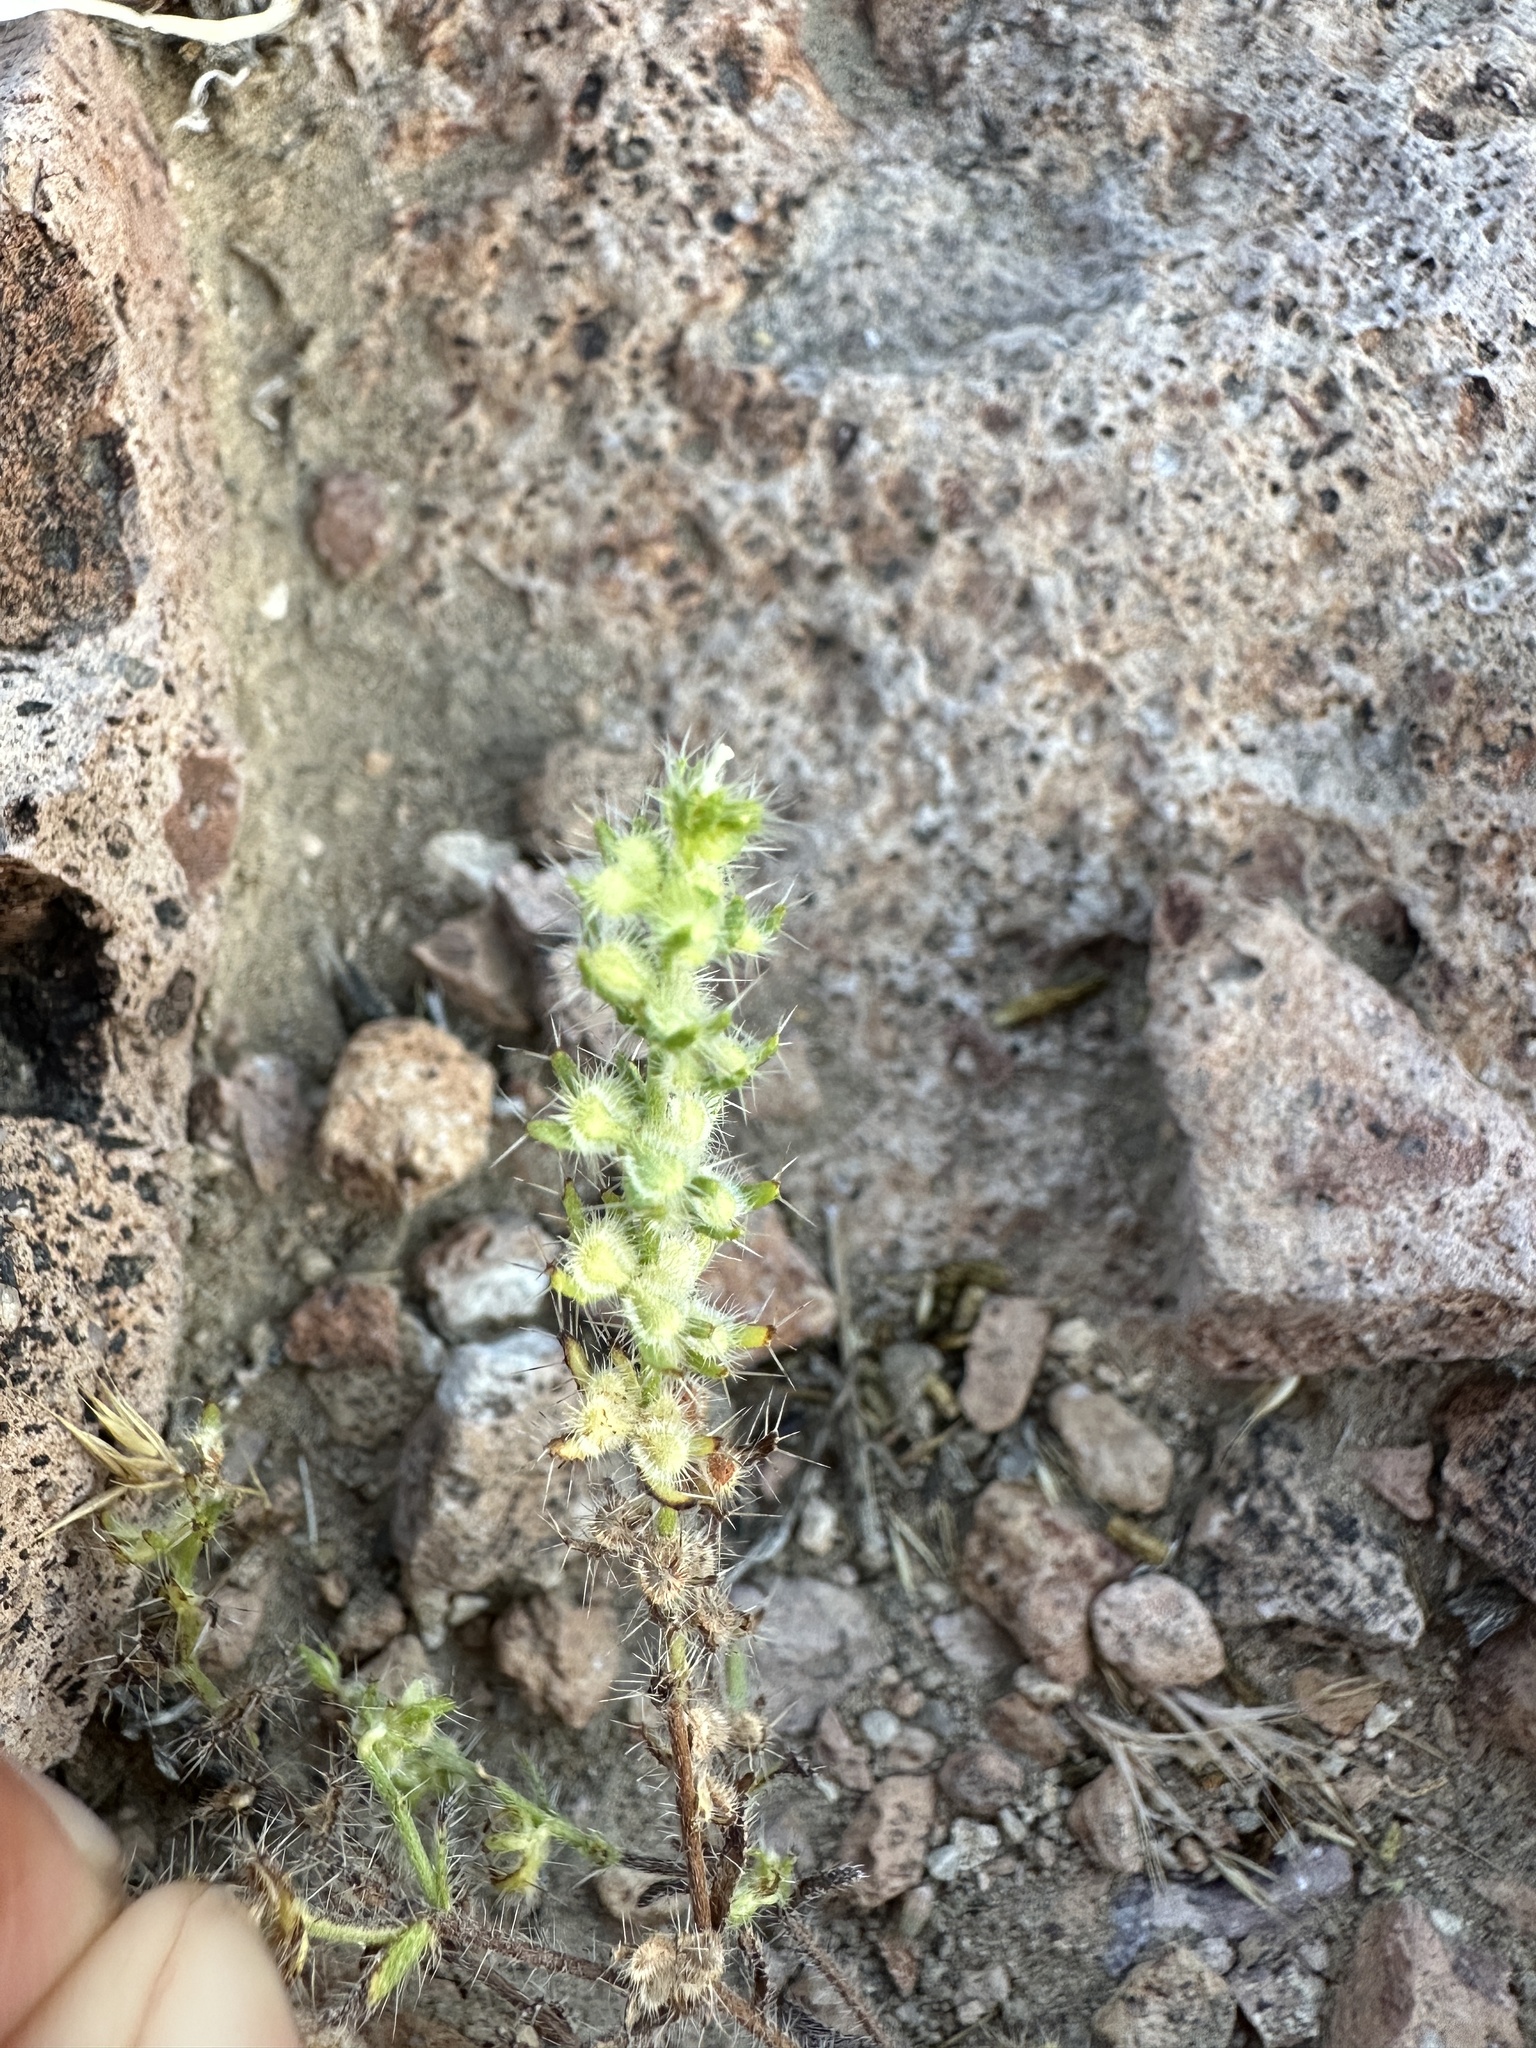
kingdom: Plantae
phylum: Tracheophyta
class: Magnoliopsida
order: Boraginales
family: Boraginaceae
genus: Pectocarya
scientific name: Pectocarya setosa
